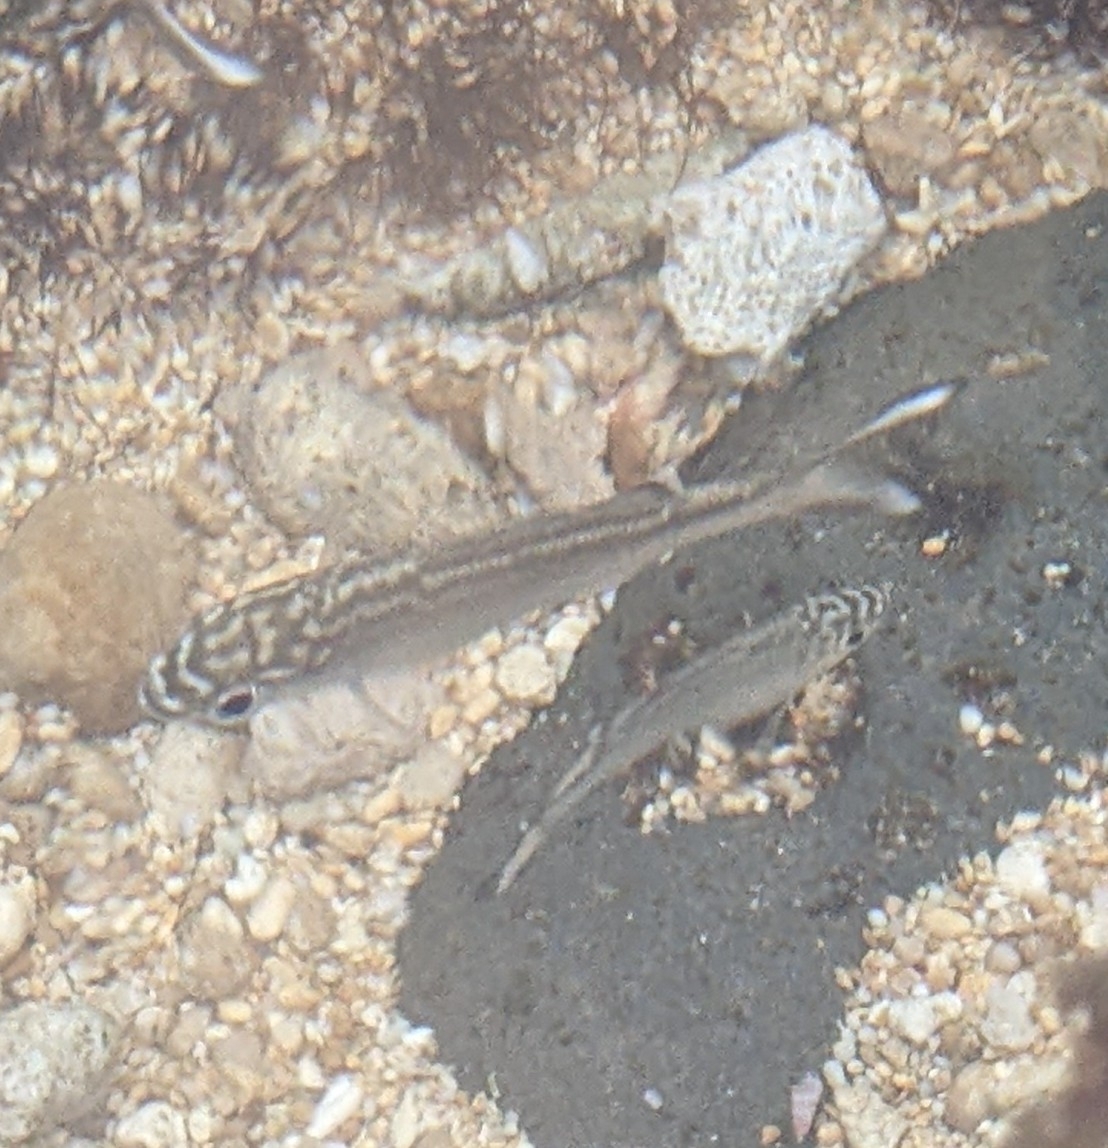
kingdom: Animalia
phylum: Chordata
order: Perciformes
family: Kuhliidae
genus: Kuhlia
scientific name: Kuhlia sandvicensis
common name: Hawaiian flagtail
